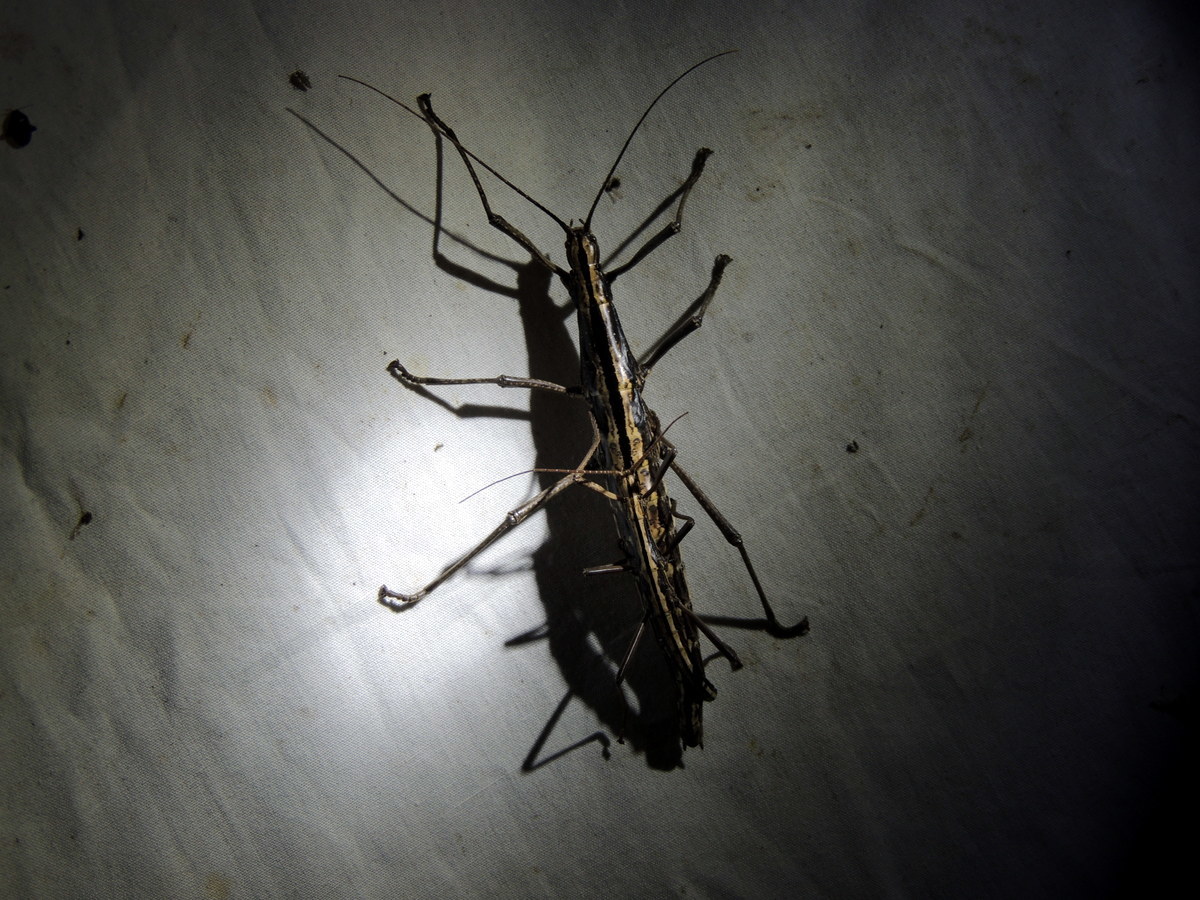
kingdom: Animalia
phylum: Arthropoda
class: Insecta
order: Phasmida
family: Pseudophasmatidae
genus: Anisomorpha
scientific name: Anisomorpha buprestoides
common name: Florida stick insect
